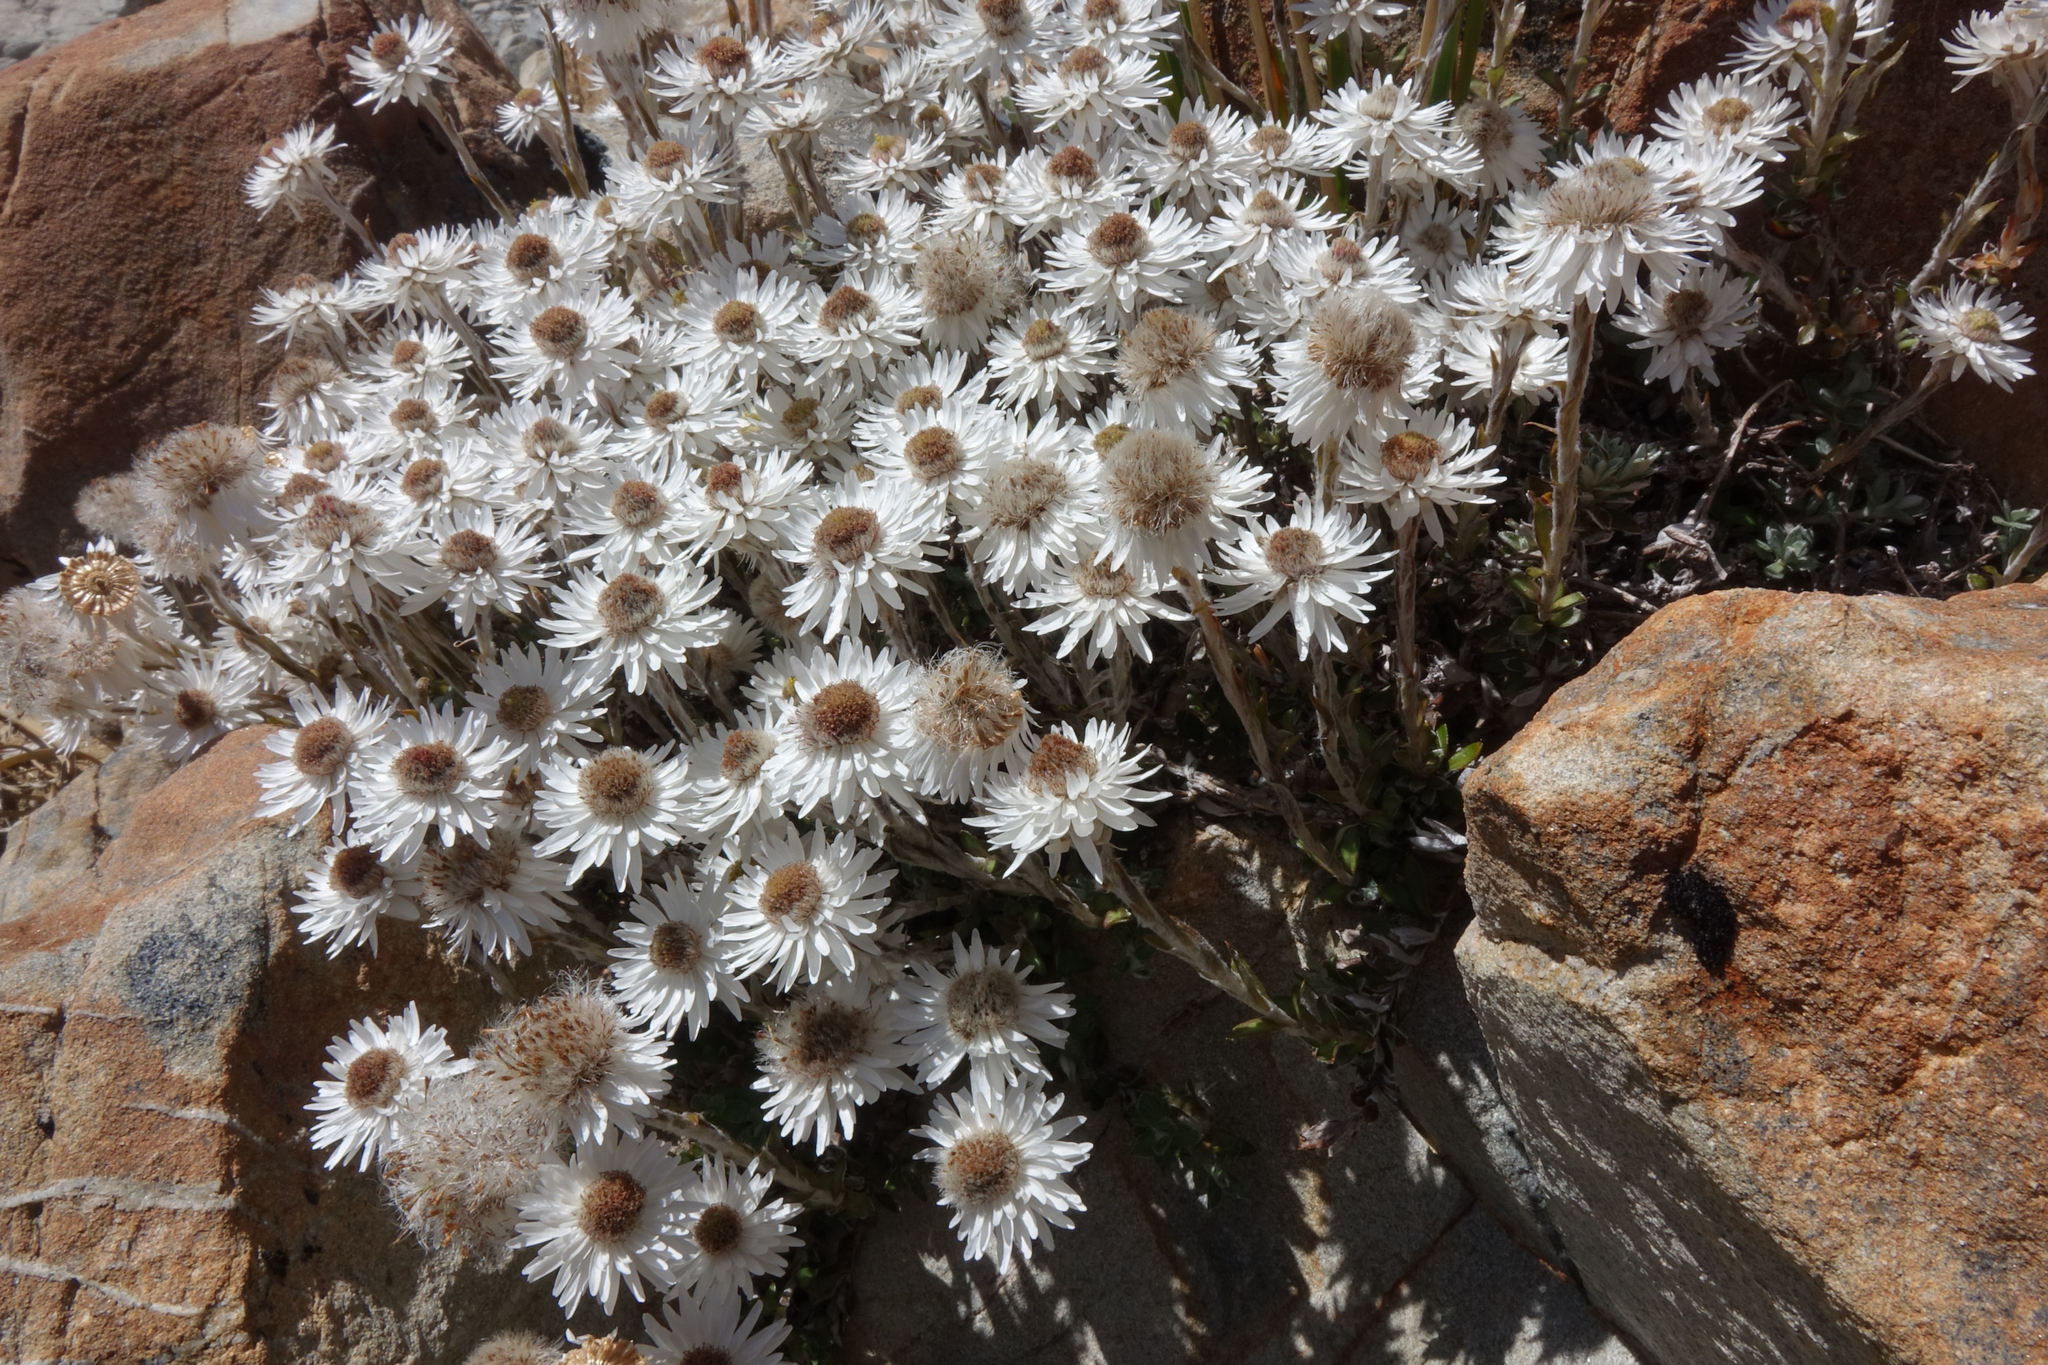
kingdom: Plantae
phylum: Tracheophyta
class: Magnoliopsida
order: Asterales
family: Asteraceae
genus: Anaphalioides
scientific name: Anaphalioides bellidioides
